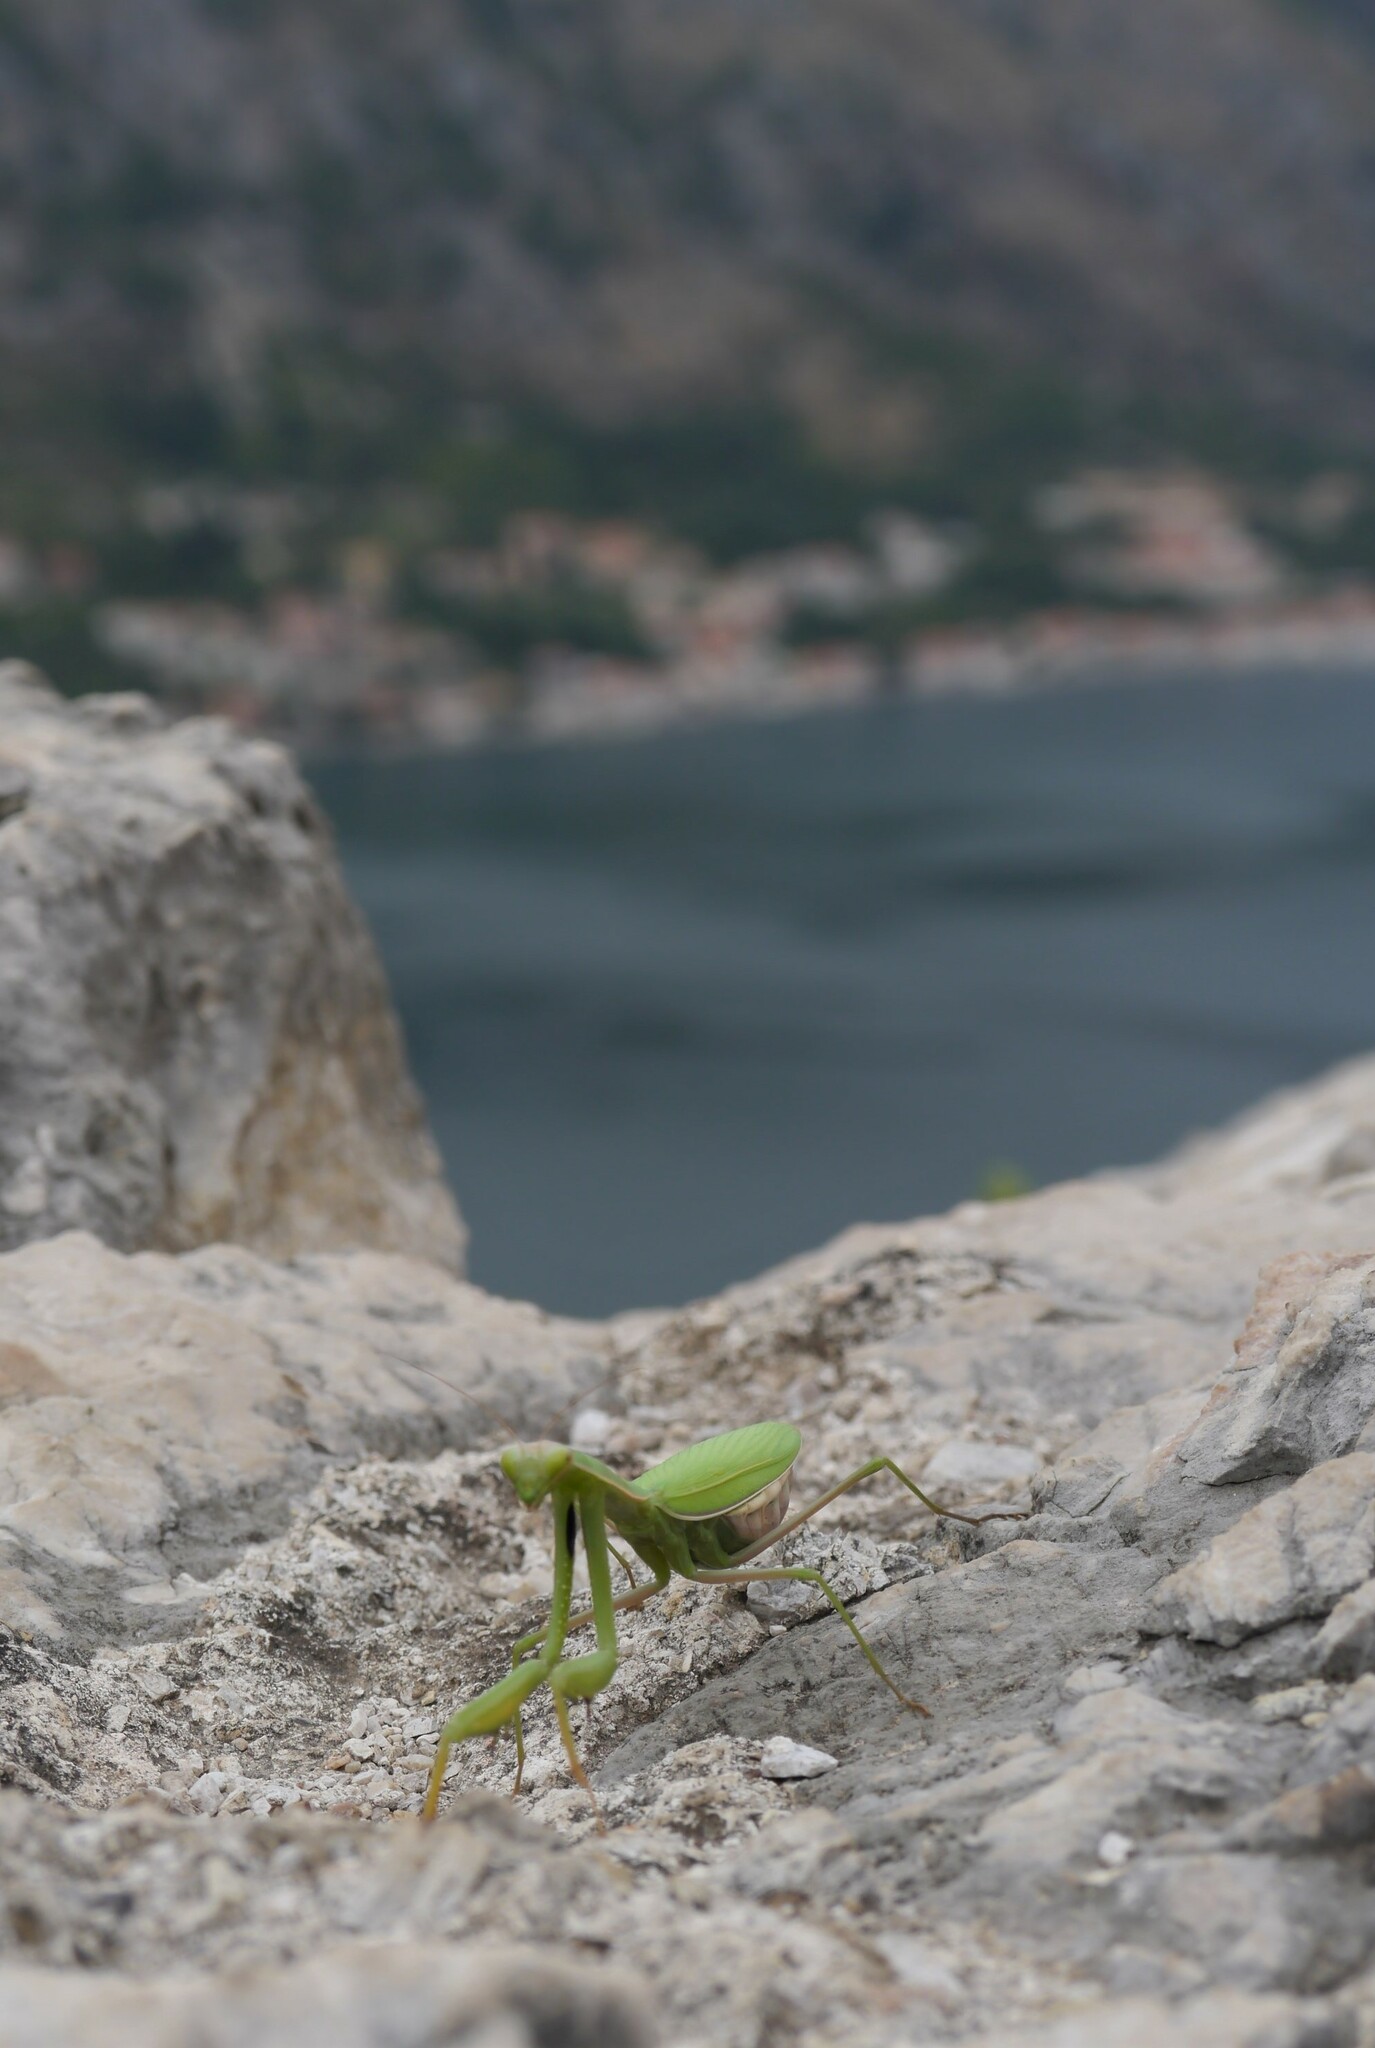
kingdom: Animalia
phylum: Arthropoda
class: Insecta
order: Mantodea
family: Mantidae
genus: Mantis
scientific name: Mantis religiosa
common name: Praying mantis
